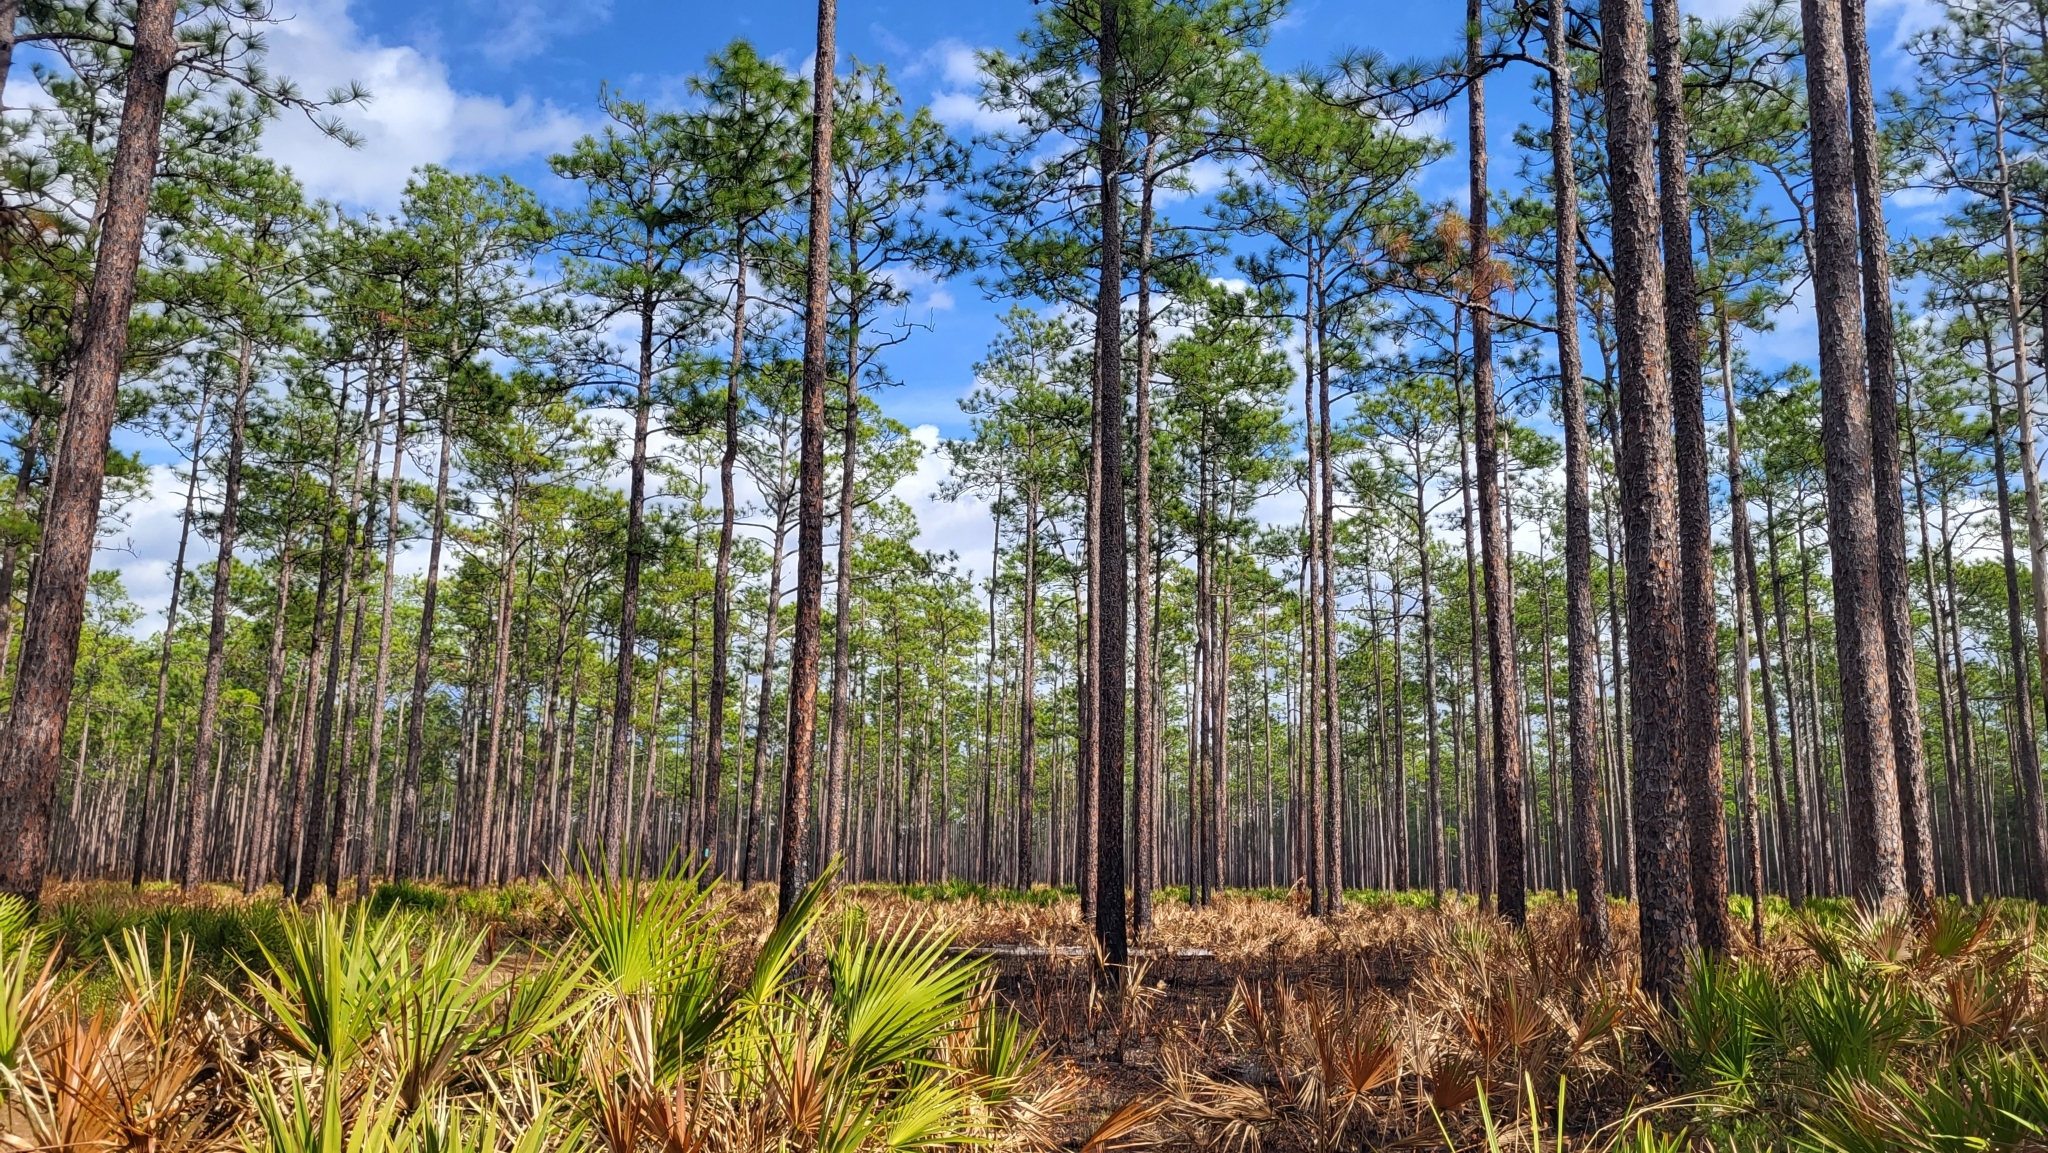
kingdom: Plantae
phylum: Tracheophyta
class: Pinopsida
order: Pinales
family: Pinaceae
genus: Pinus
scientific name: Pinus palustris
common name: Longleaf pine
